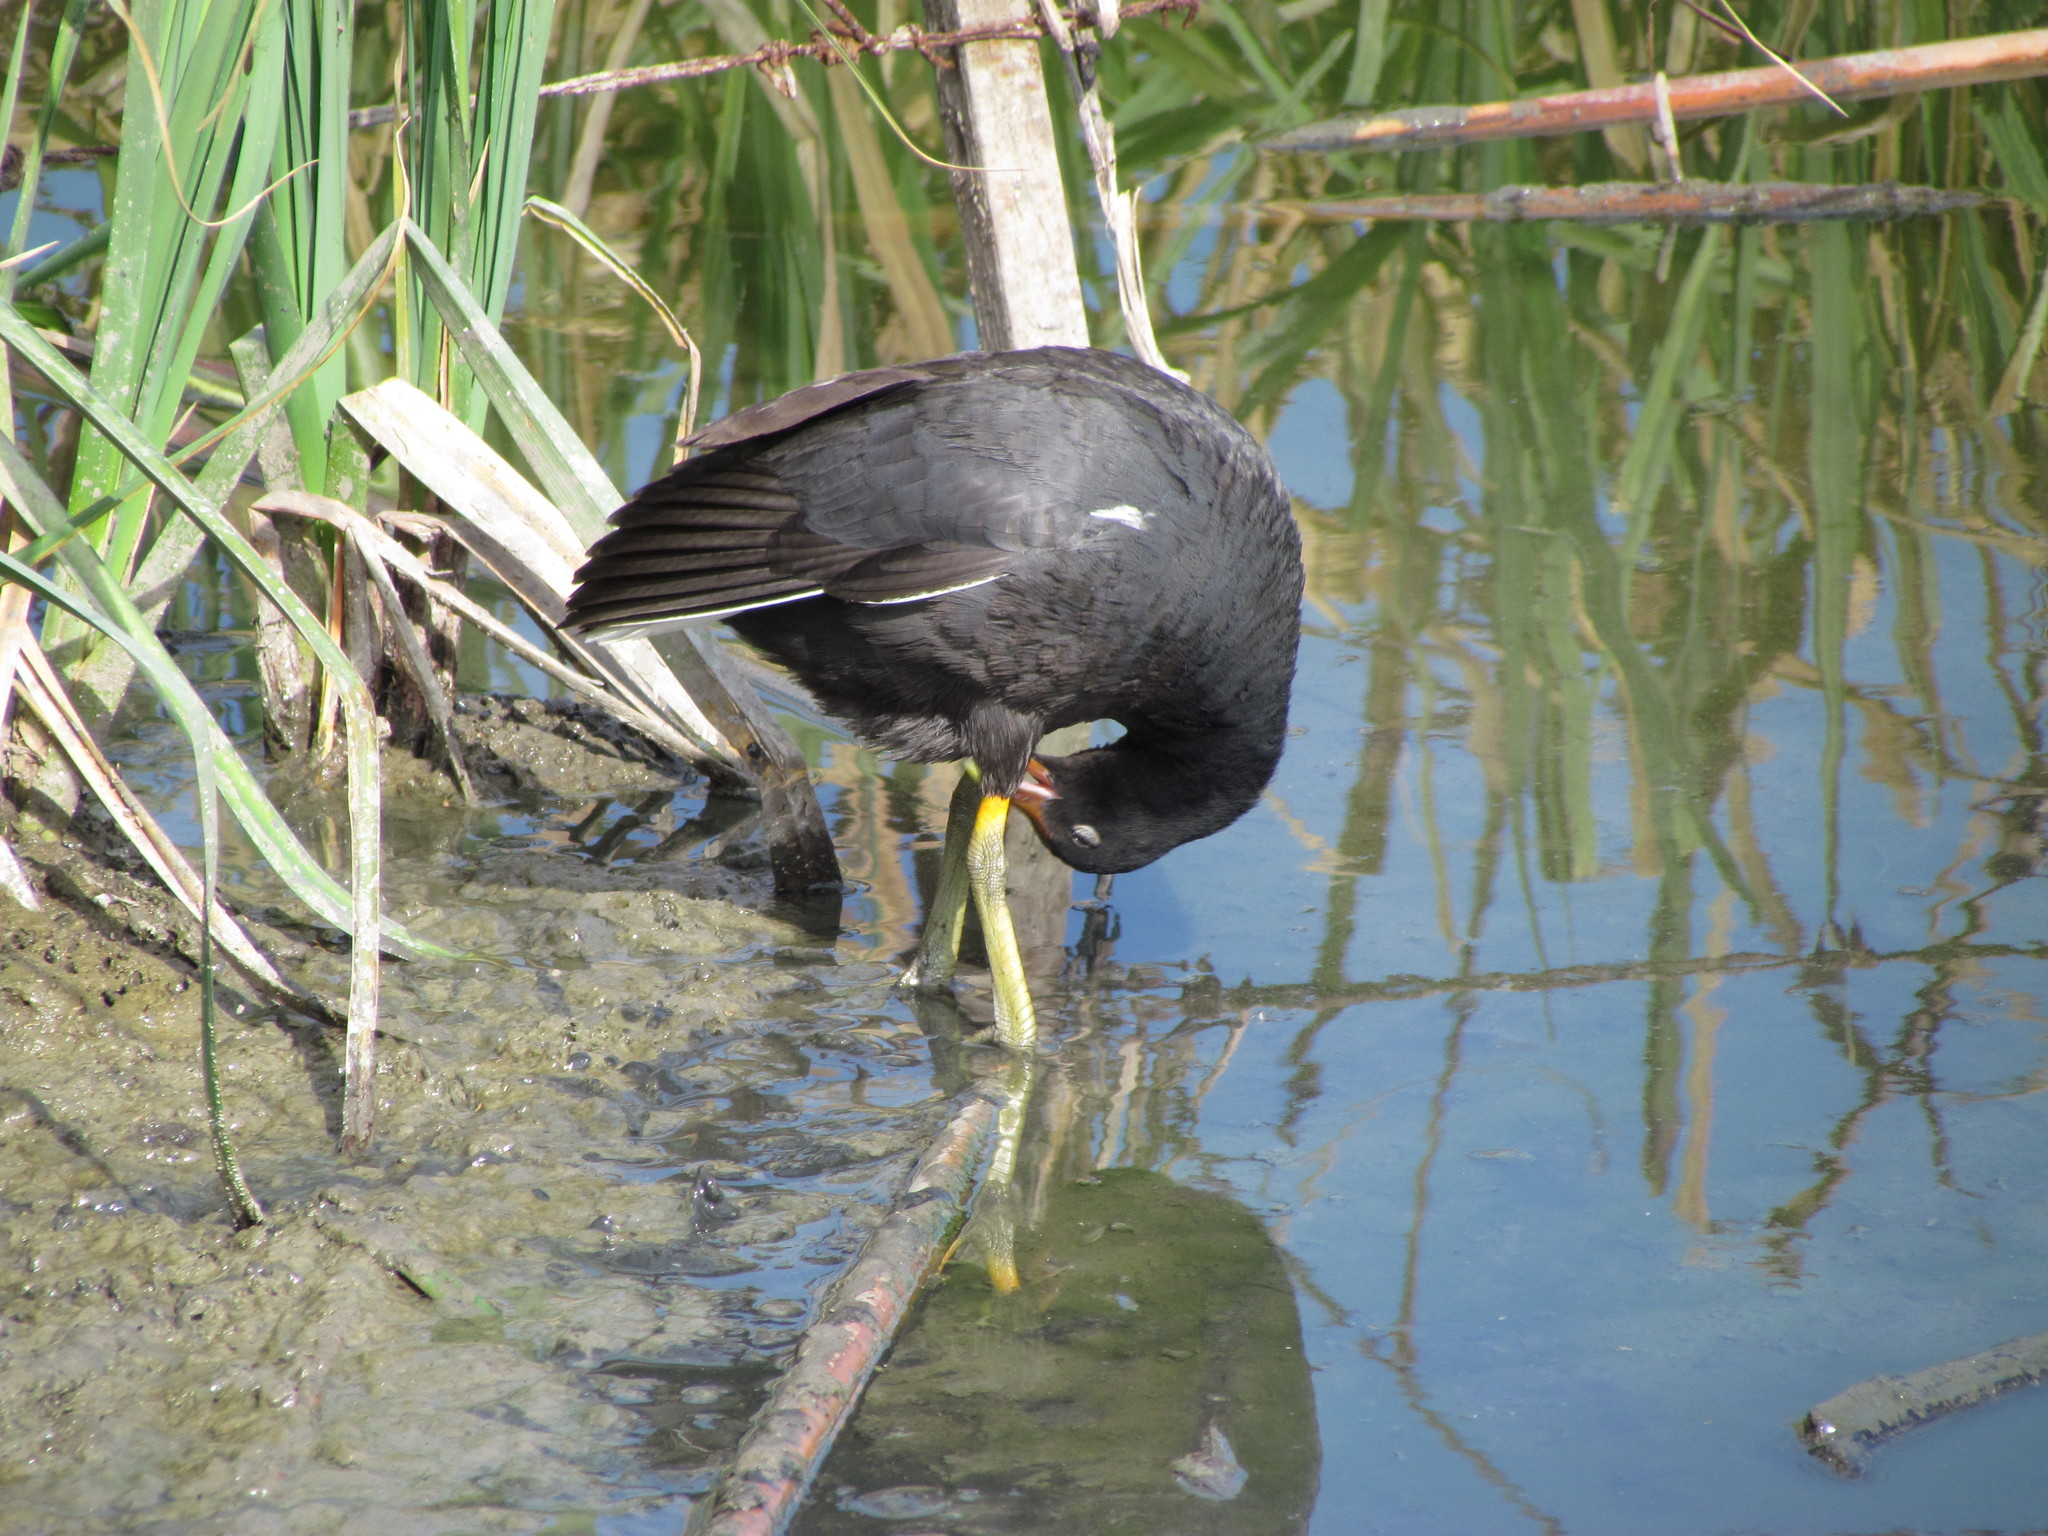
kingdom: Animalia
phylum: Chordata
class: Aves
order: Gruiformes
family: Rallidae
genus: Gallinula
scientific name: Gallinula chloropus
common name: Common moorhen
